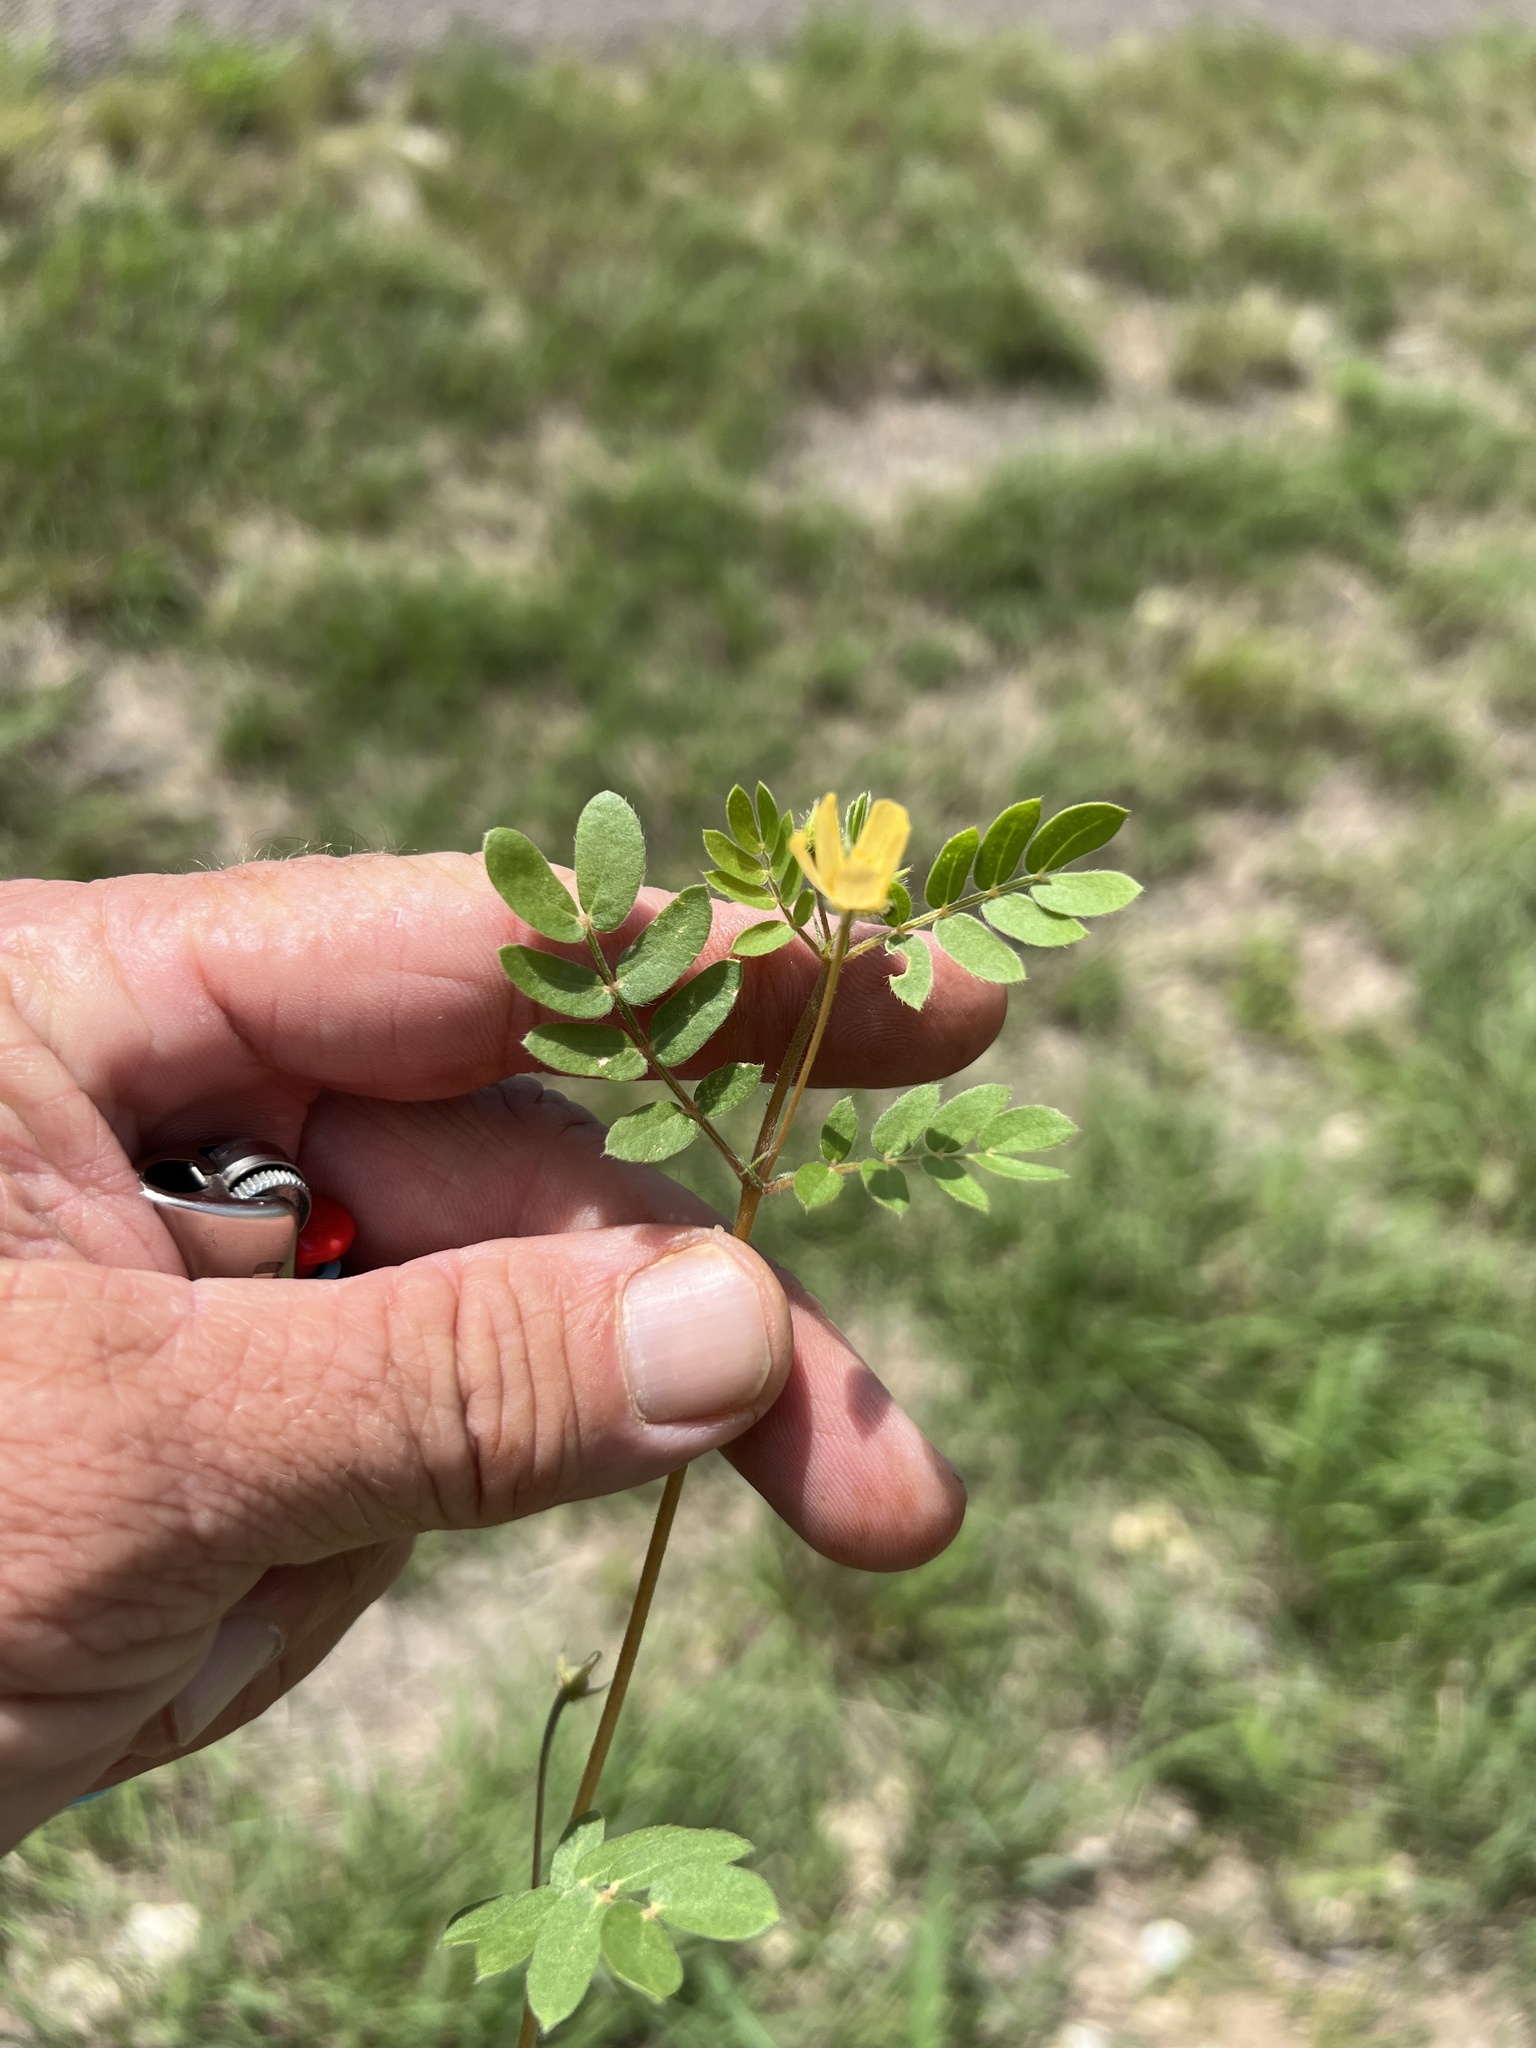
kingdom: Plantae
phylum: Tracheophyta
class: Magnoliopsida
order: Zygophyllales
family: Zygophyllaceae
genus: Kallstroemia
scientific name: Kallstroemia parviflora
